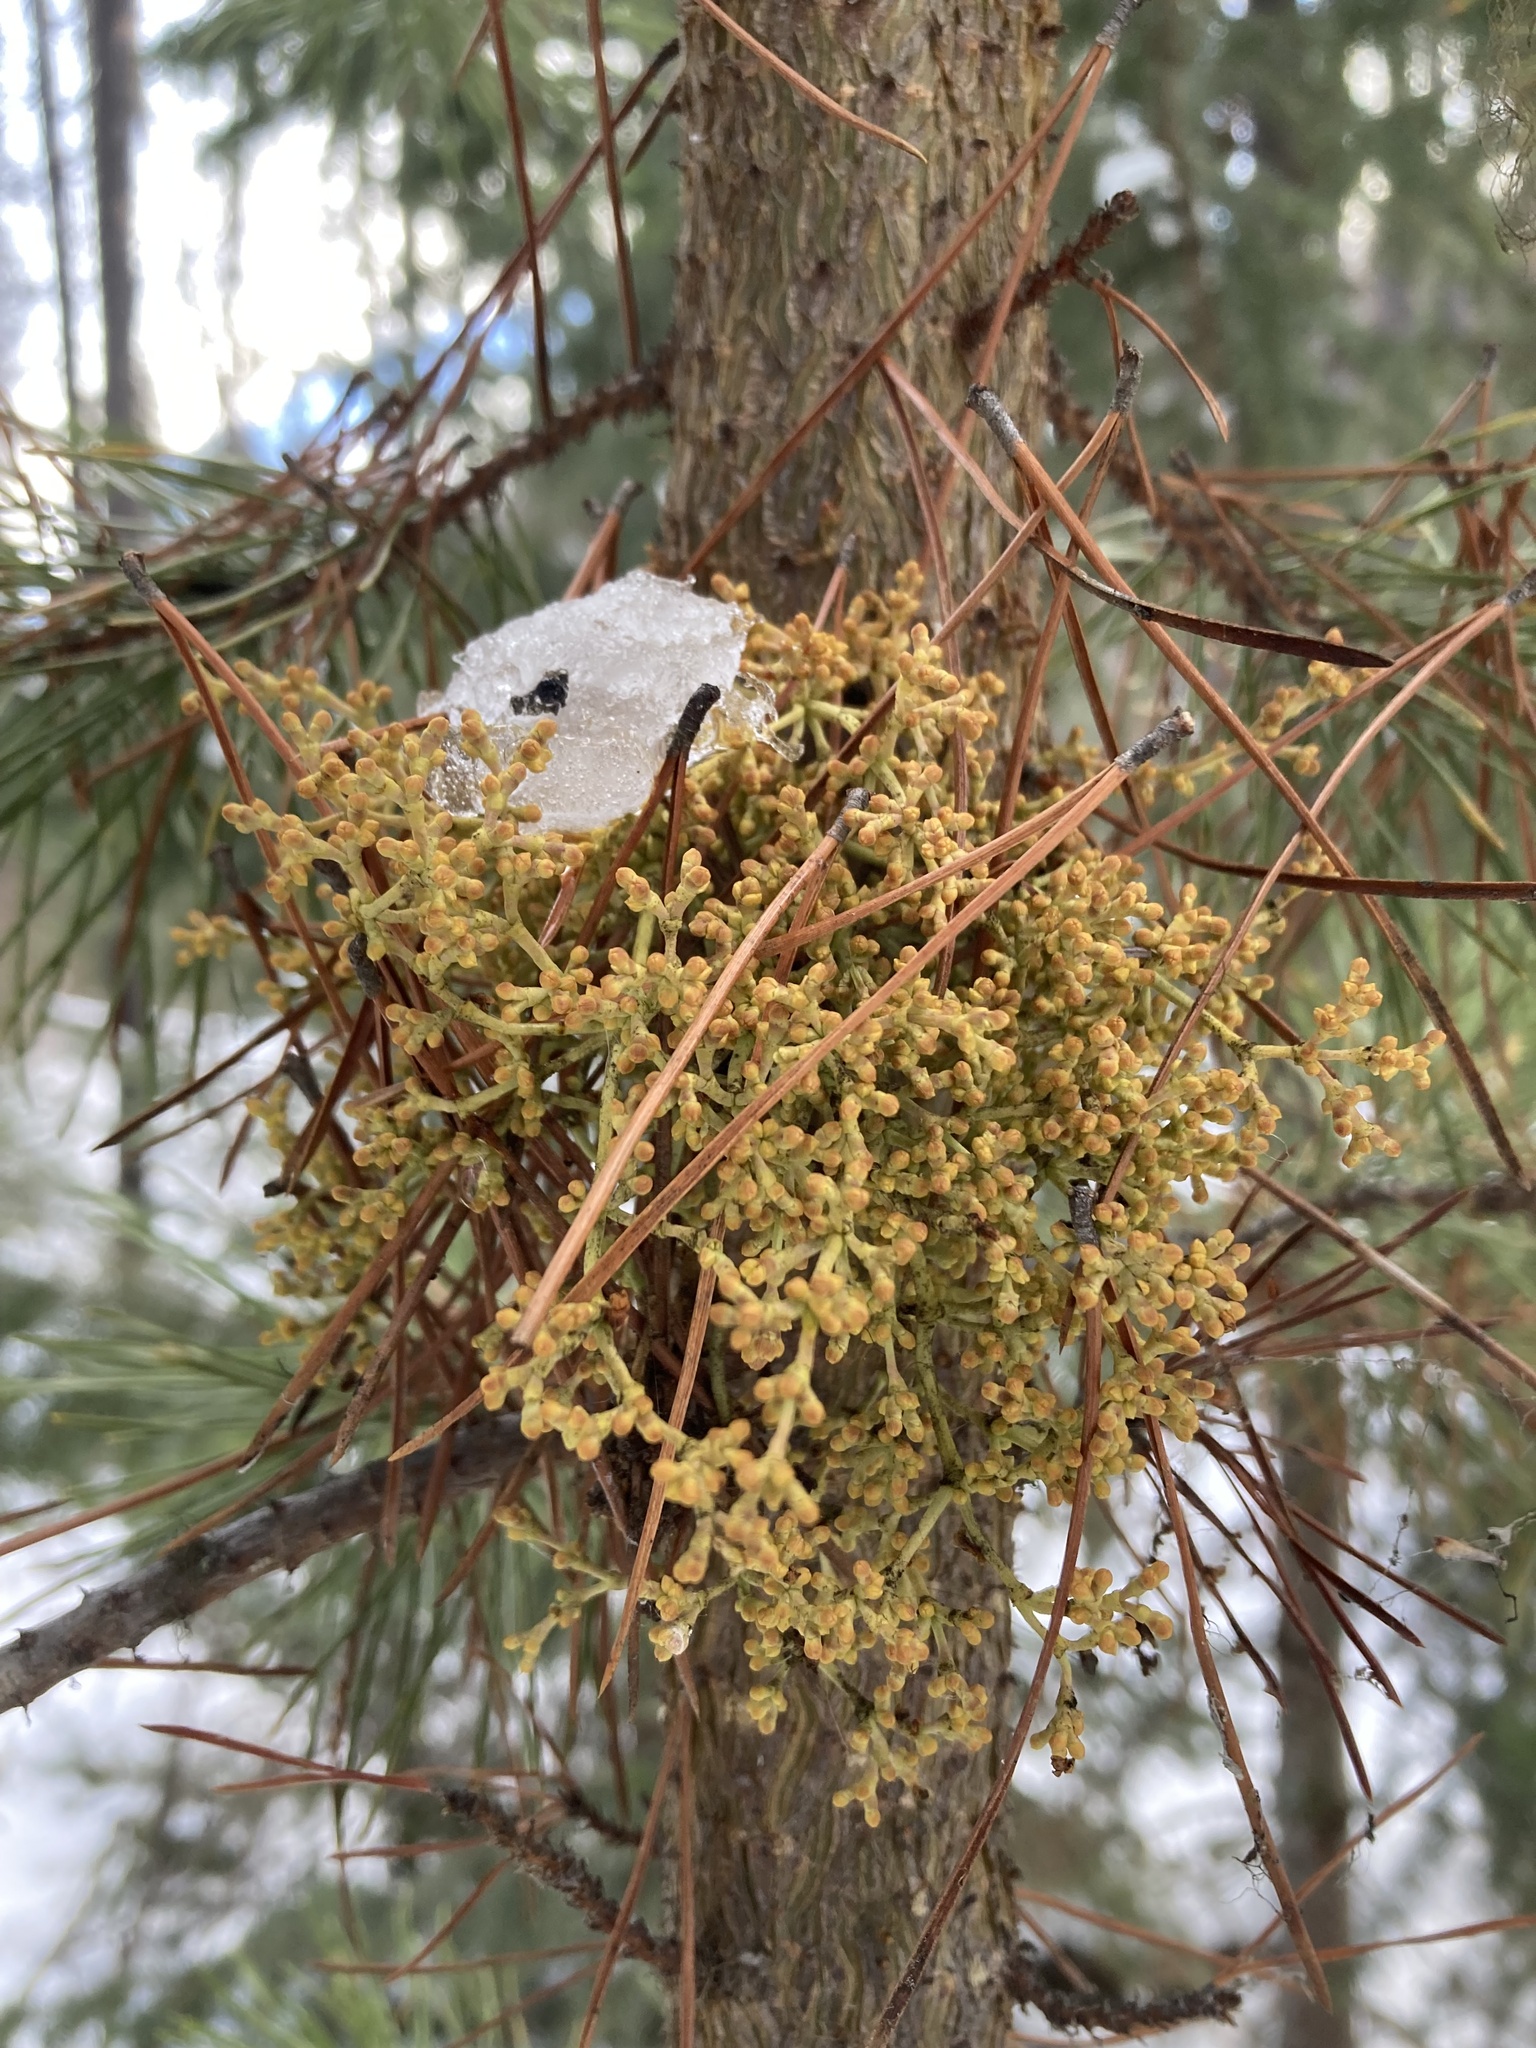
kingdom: Plantae
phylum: Tracheophyta
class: Magnoliopsida
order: Santalales
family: Viscaceae
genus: Arceuthobium
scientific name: Arceuthobium americanum
